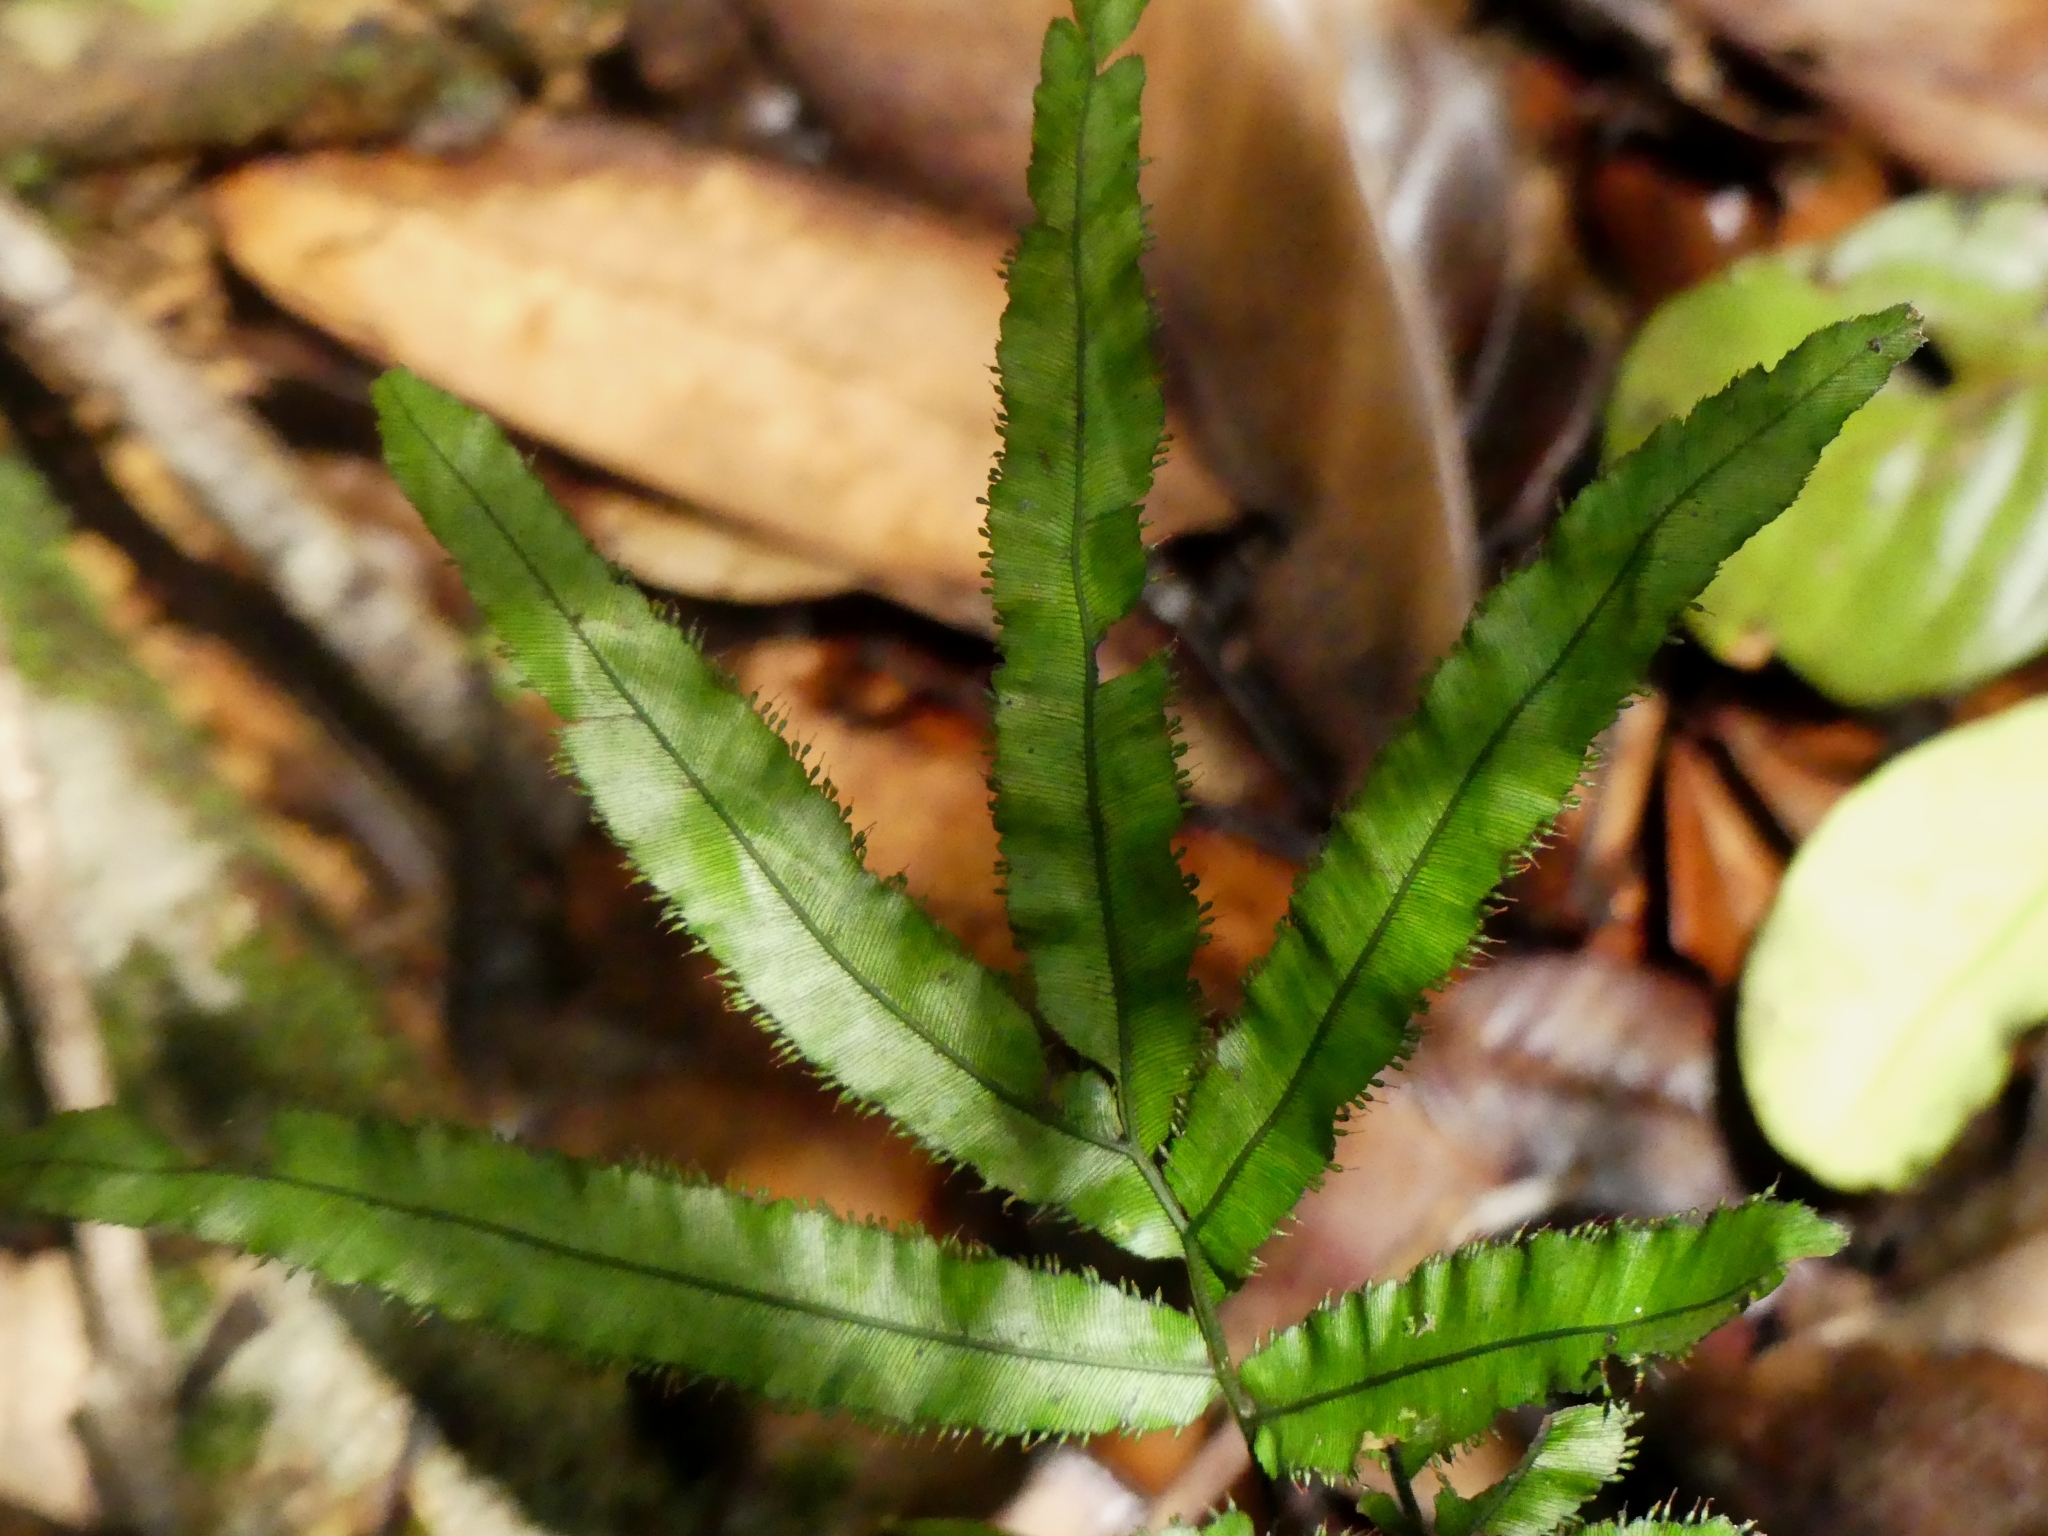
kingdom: Plantae
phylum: Tracheophyta
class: Polypodiopsida
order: Hymenophyllales
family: Hymenophyllaceae
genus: Trichomanes
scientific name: Trichomanes pinnatum
